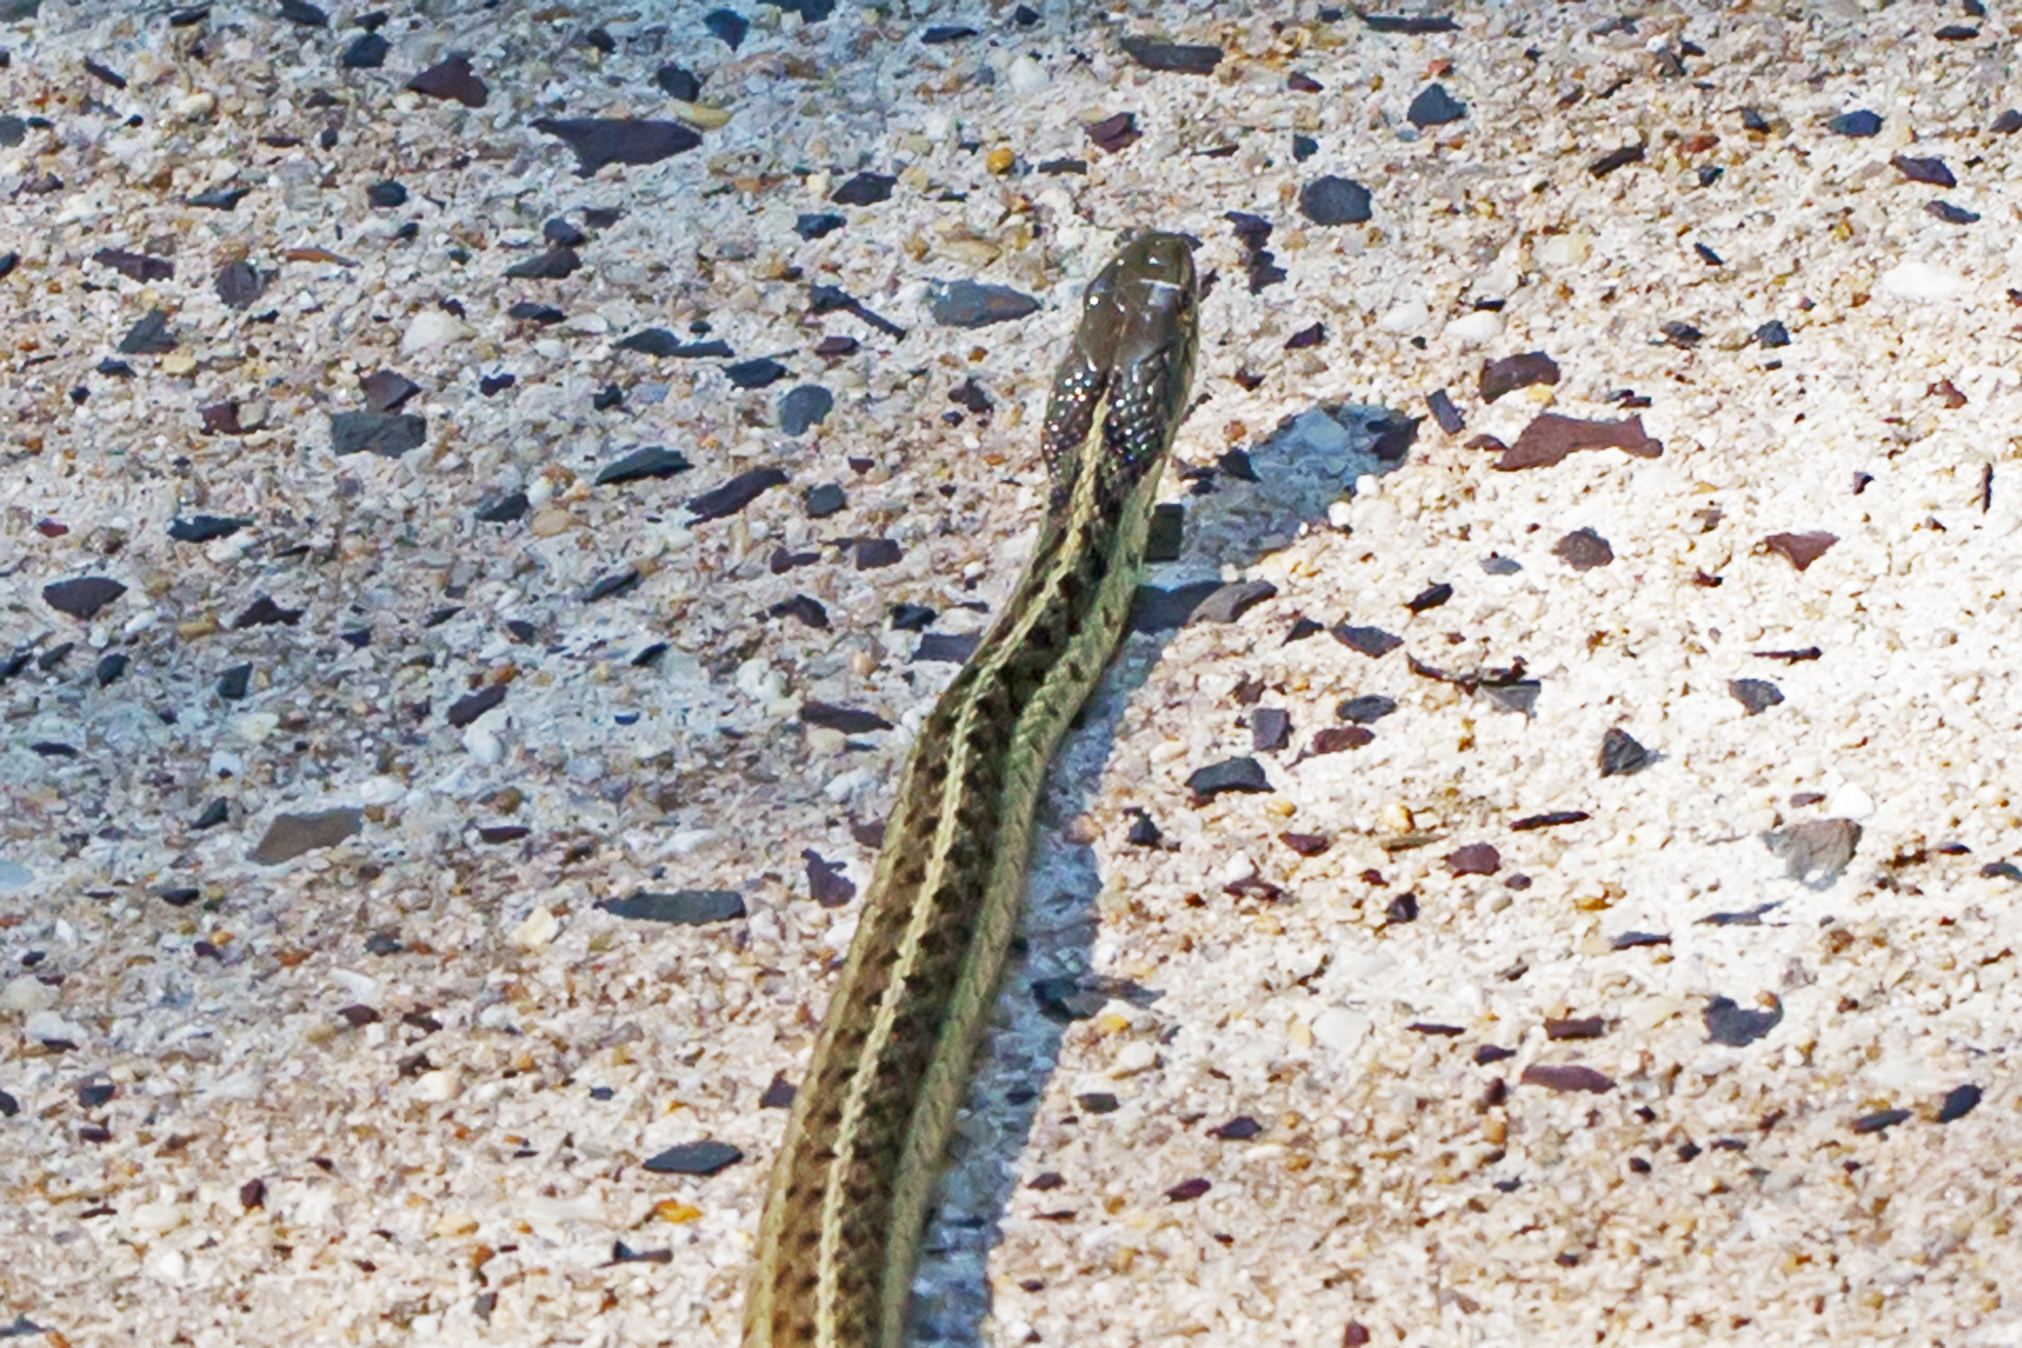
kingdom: Animalia
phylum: Chordata
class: Squamata
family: Colubridae
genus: Thamnophis
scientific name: Thamnophis sirtalis
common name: Common garter snake
